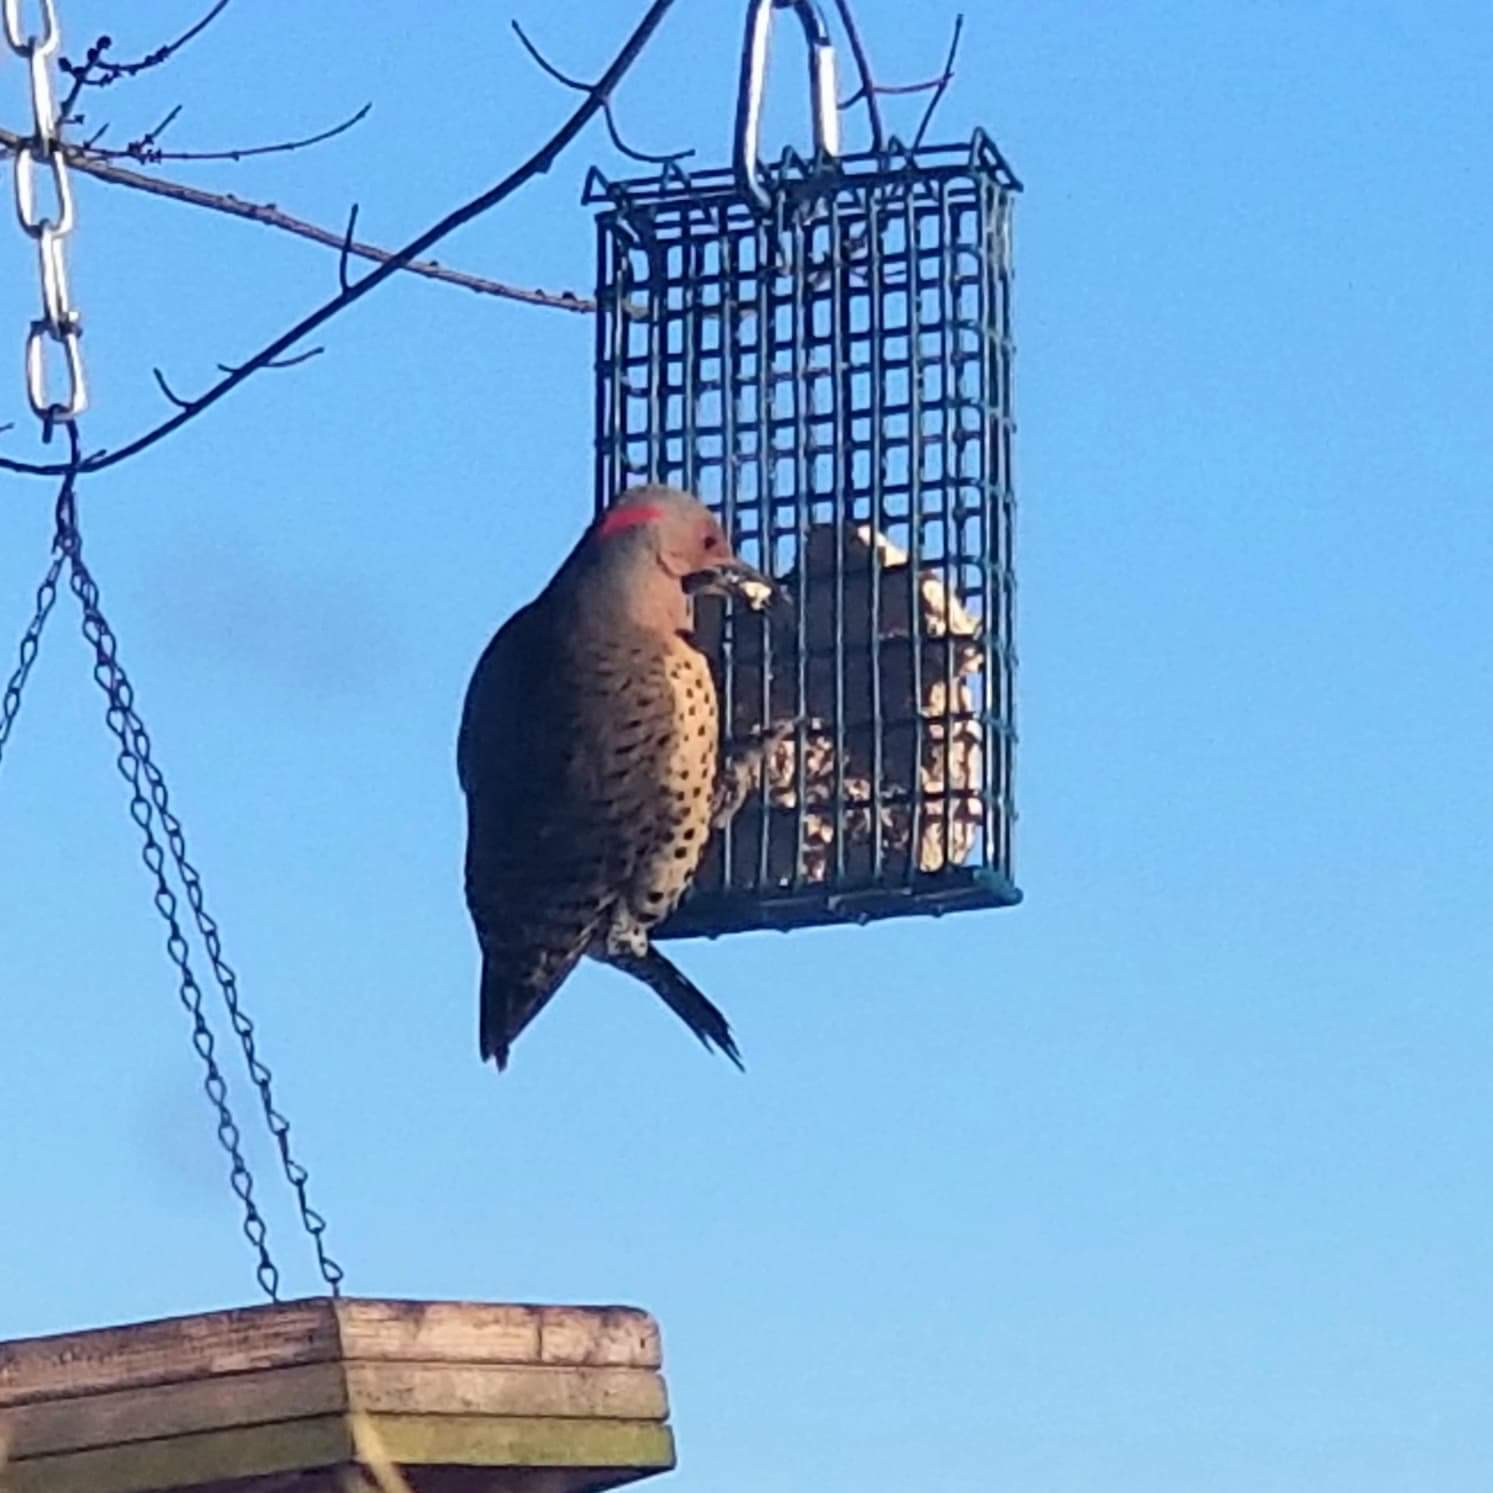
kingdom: Animalia
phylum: Chordata
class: Aves
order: Piciformes
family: Picidae
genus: Colaptes
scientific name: Colaptes auratus
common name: Northern flicker
